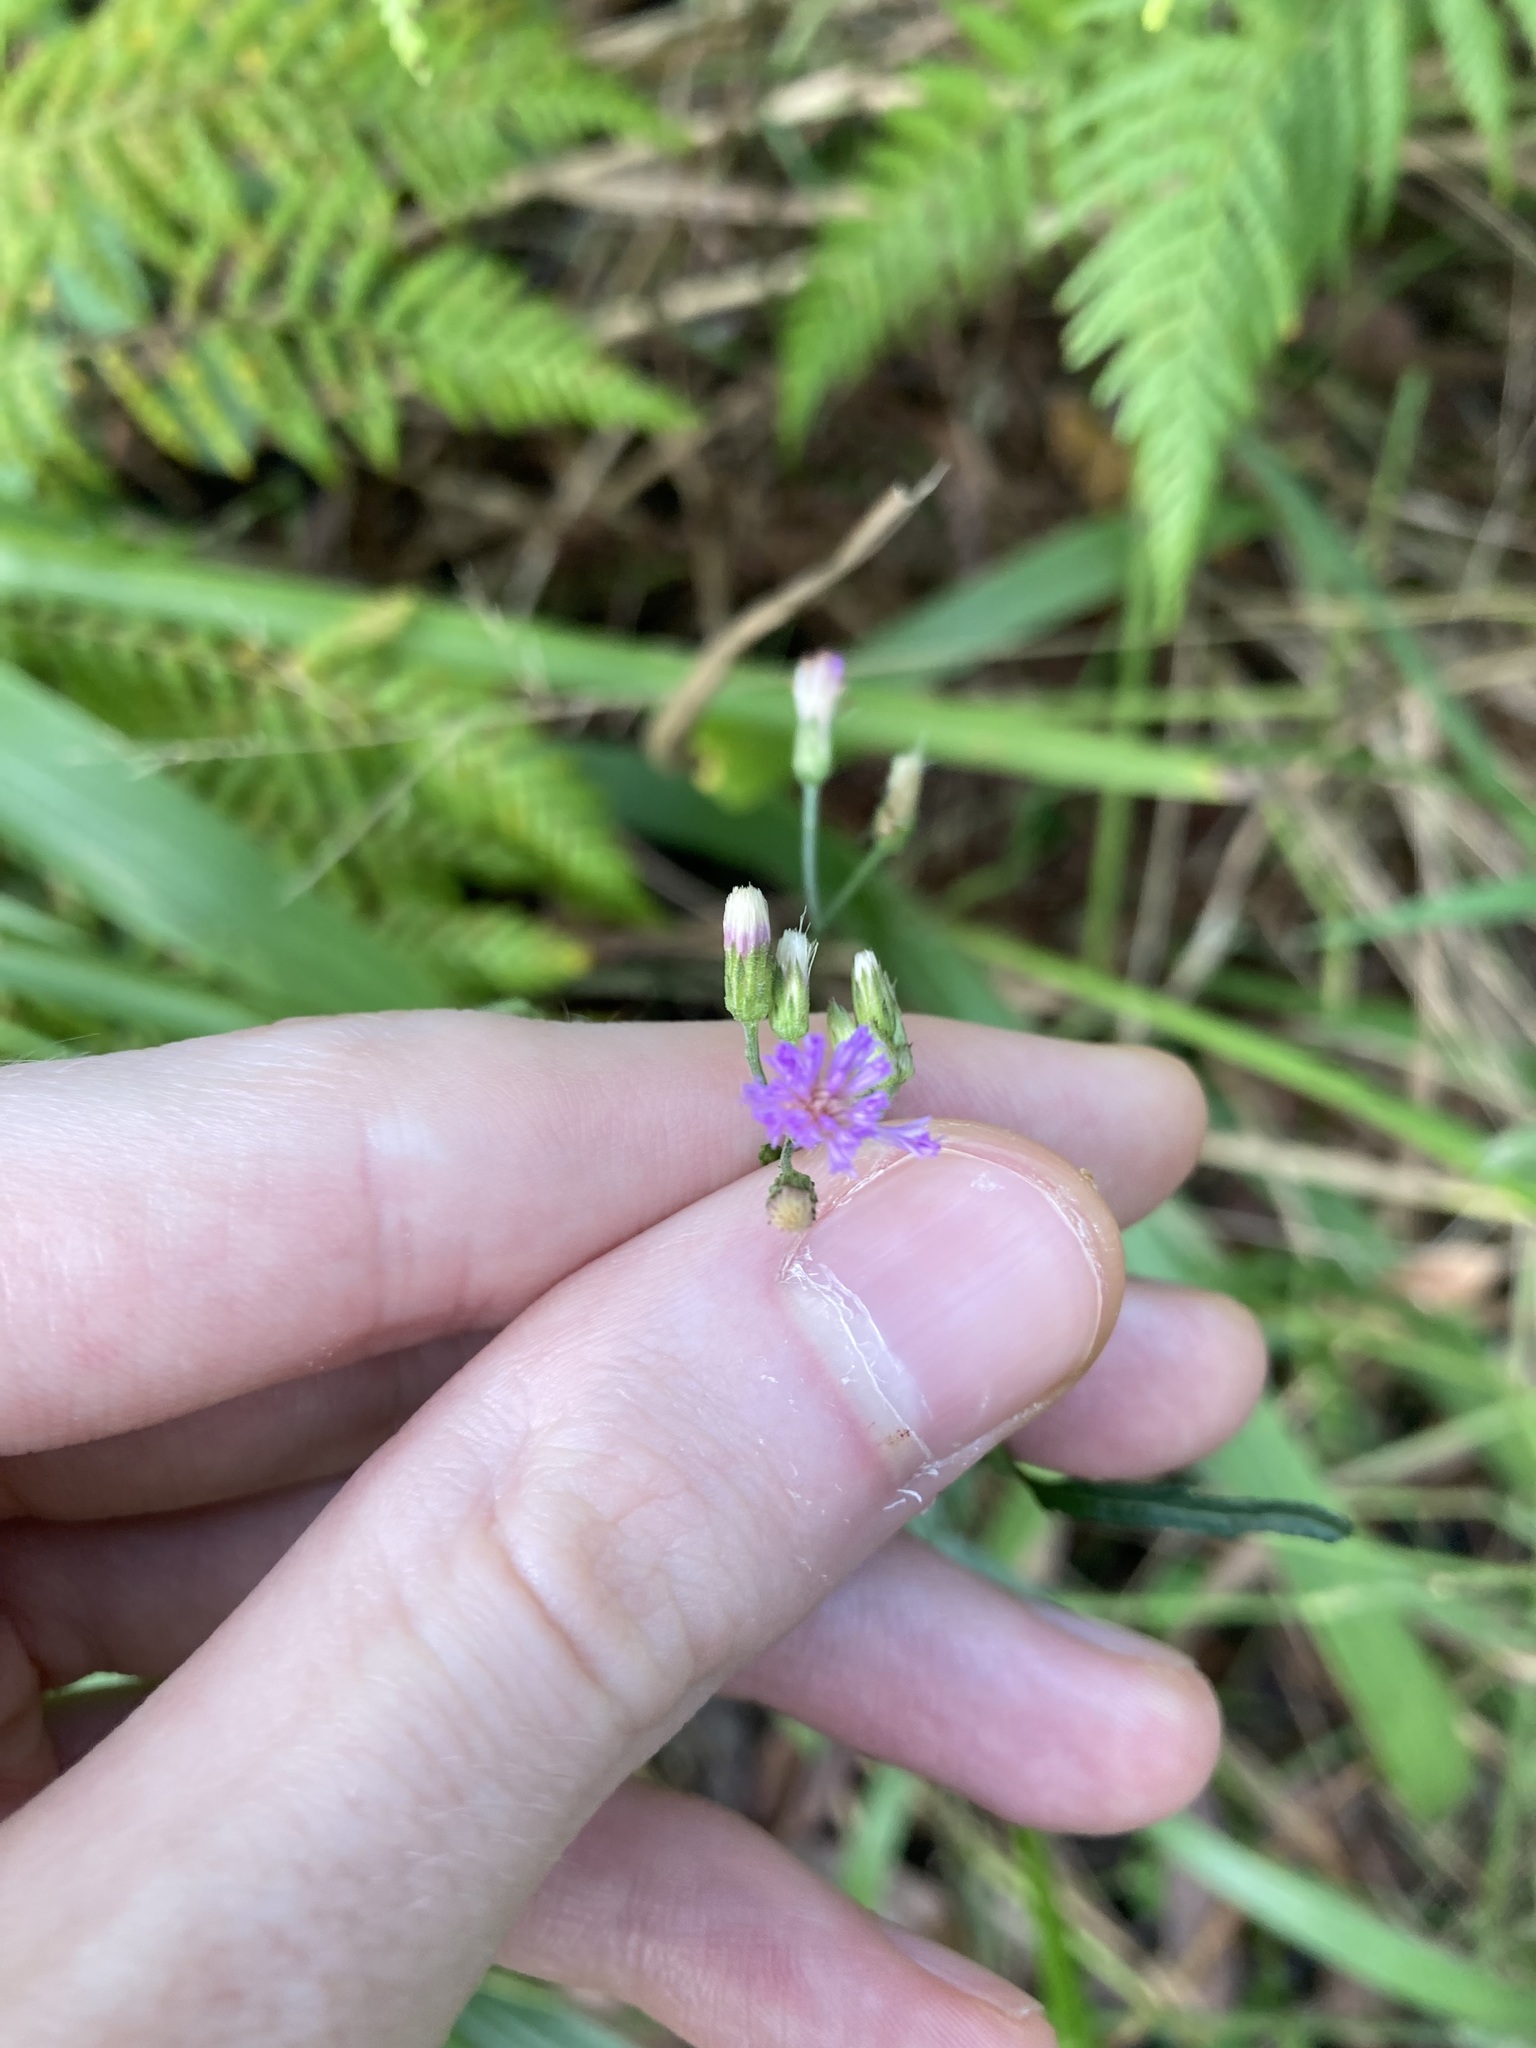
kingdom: Plantae
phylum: Tracheophyta
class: Magnoliopsida
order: Asterales
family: Asteraceae
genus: Cyanthillium
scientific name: Cyanthillium cinereum
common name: Little ironweed
